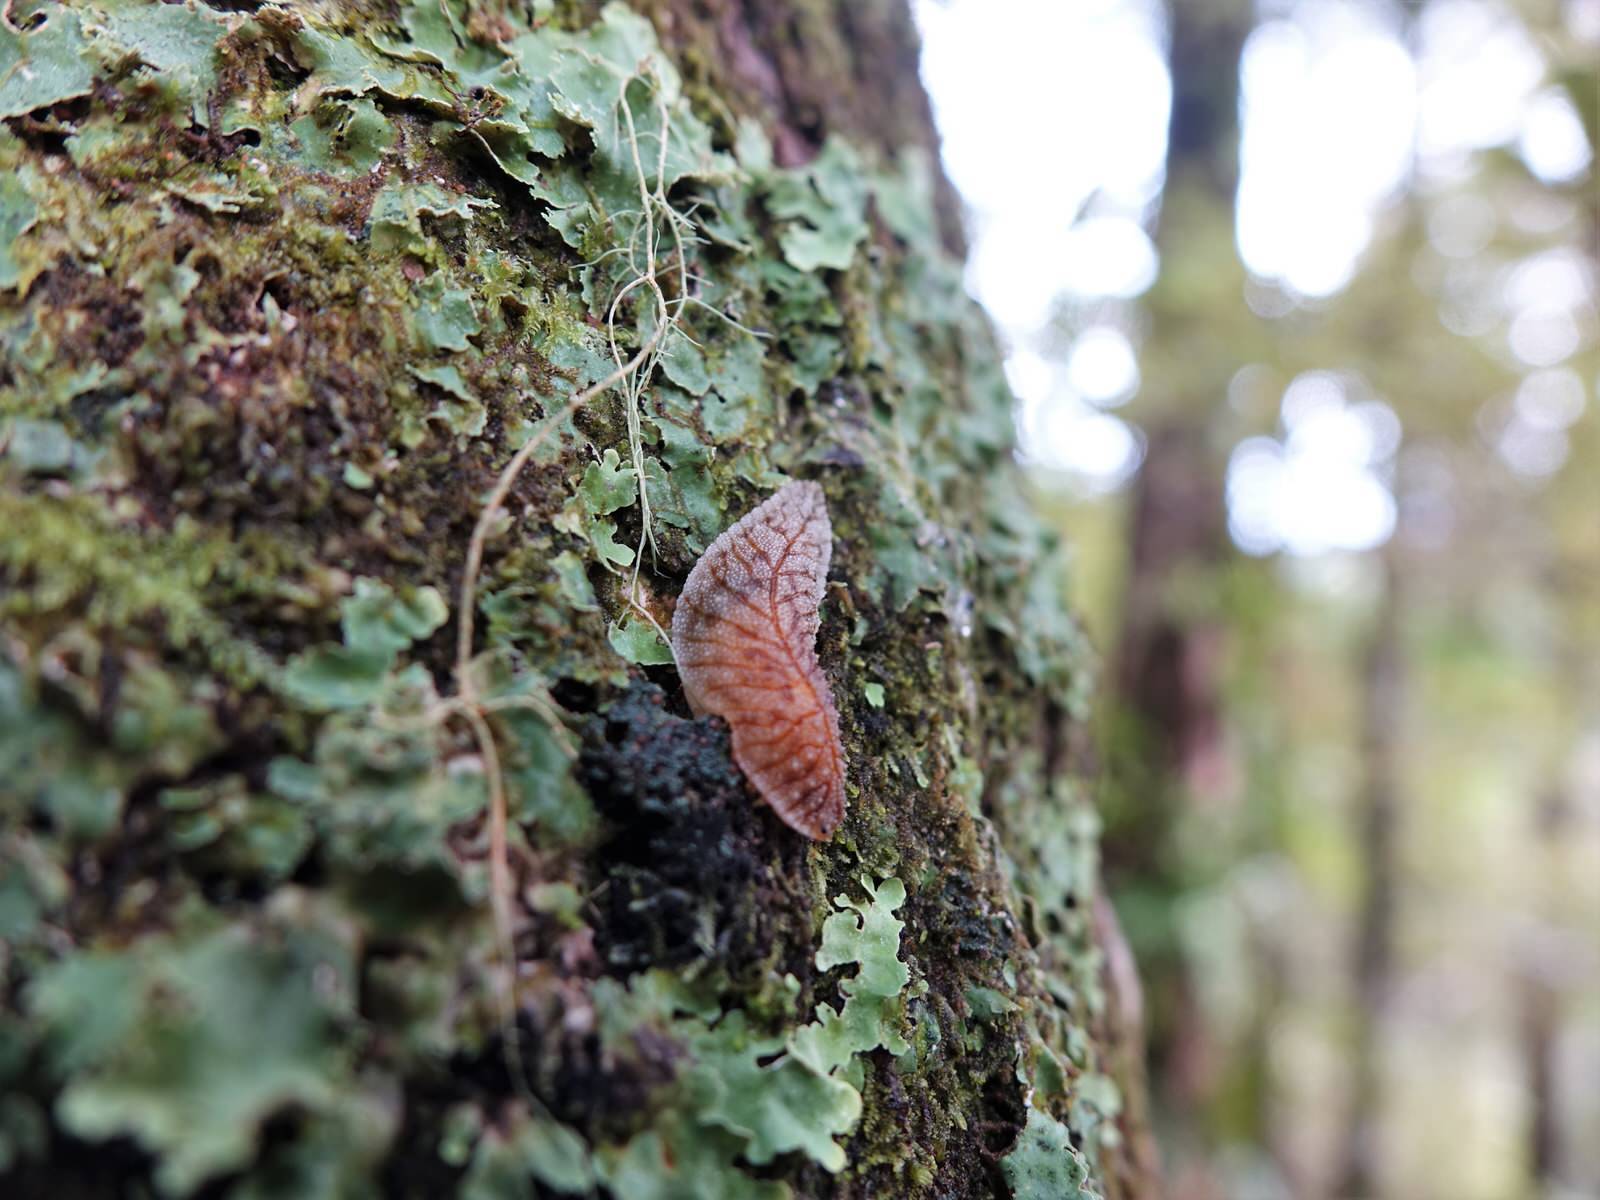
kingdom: Animalia
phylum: Mollusca
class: Gastropoda
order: Stylommatophora
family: Athoracophoridae
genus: Athoracophorus
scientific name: Athoracophorus bitentaculatus
